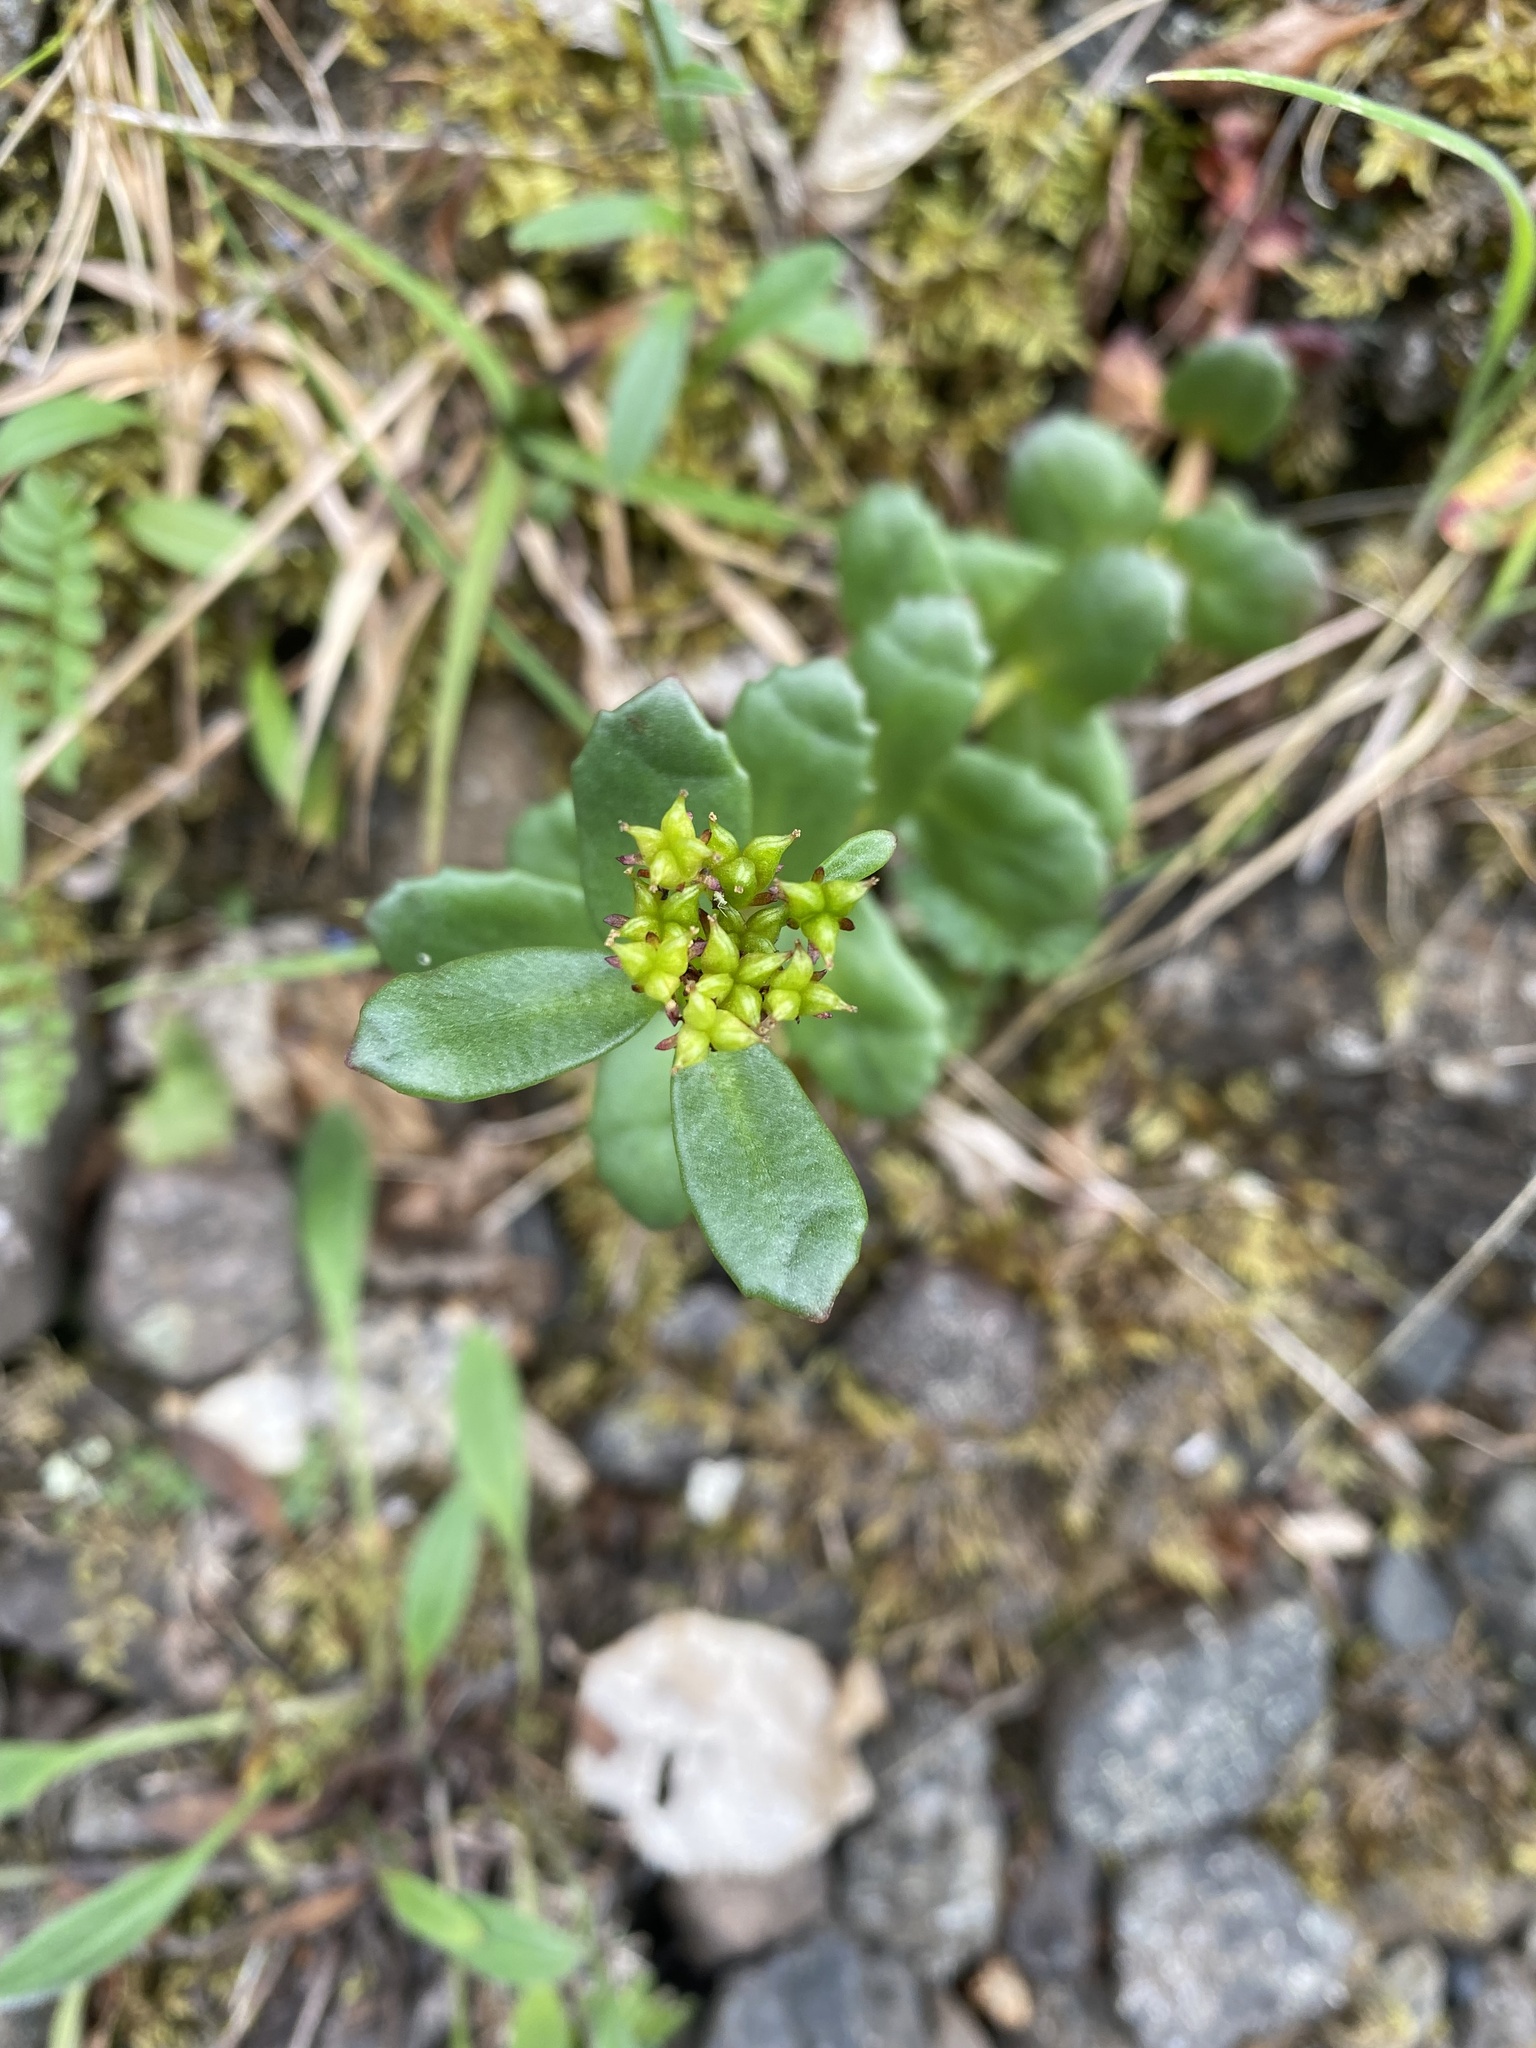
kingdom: Plantae
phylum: Tracheophyta
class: Magnoliopsida
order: Saxifragales
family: Crassulaceae
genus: Rhodiola
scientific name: Rhodiola rosea
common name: Roseroot
